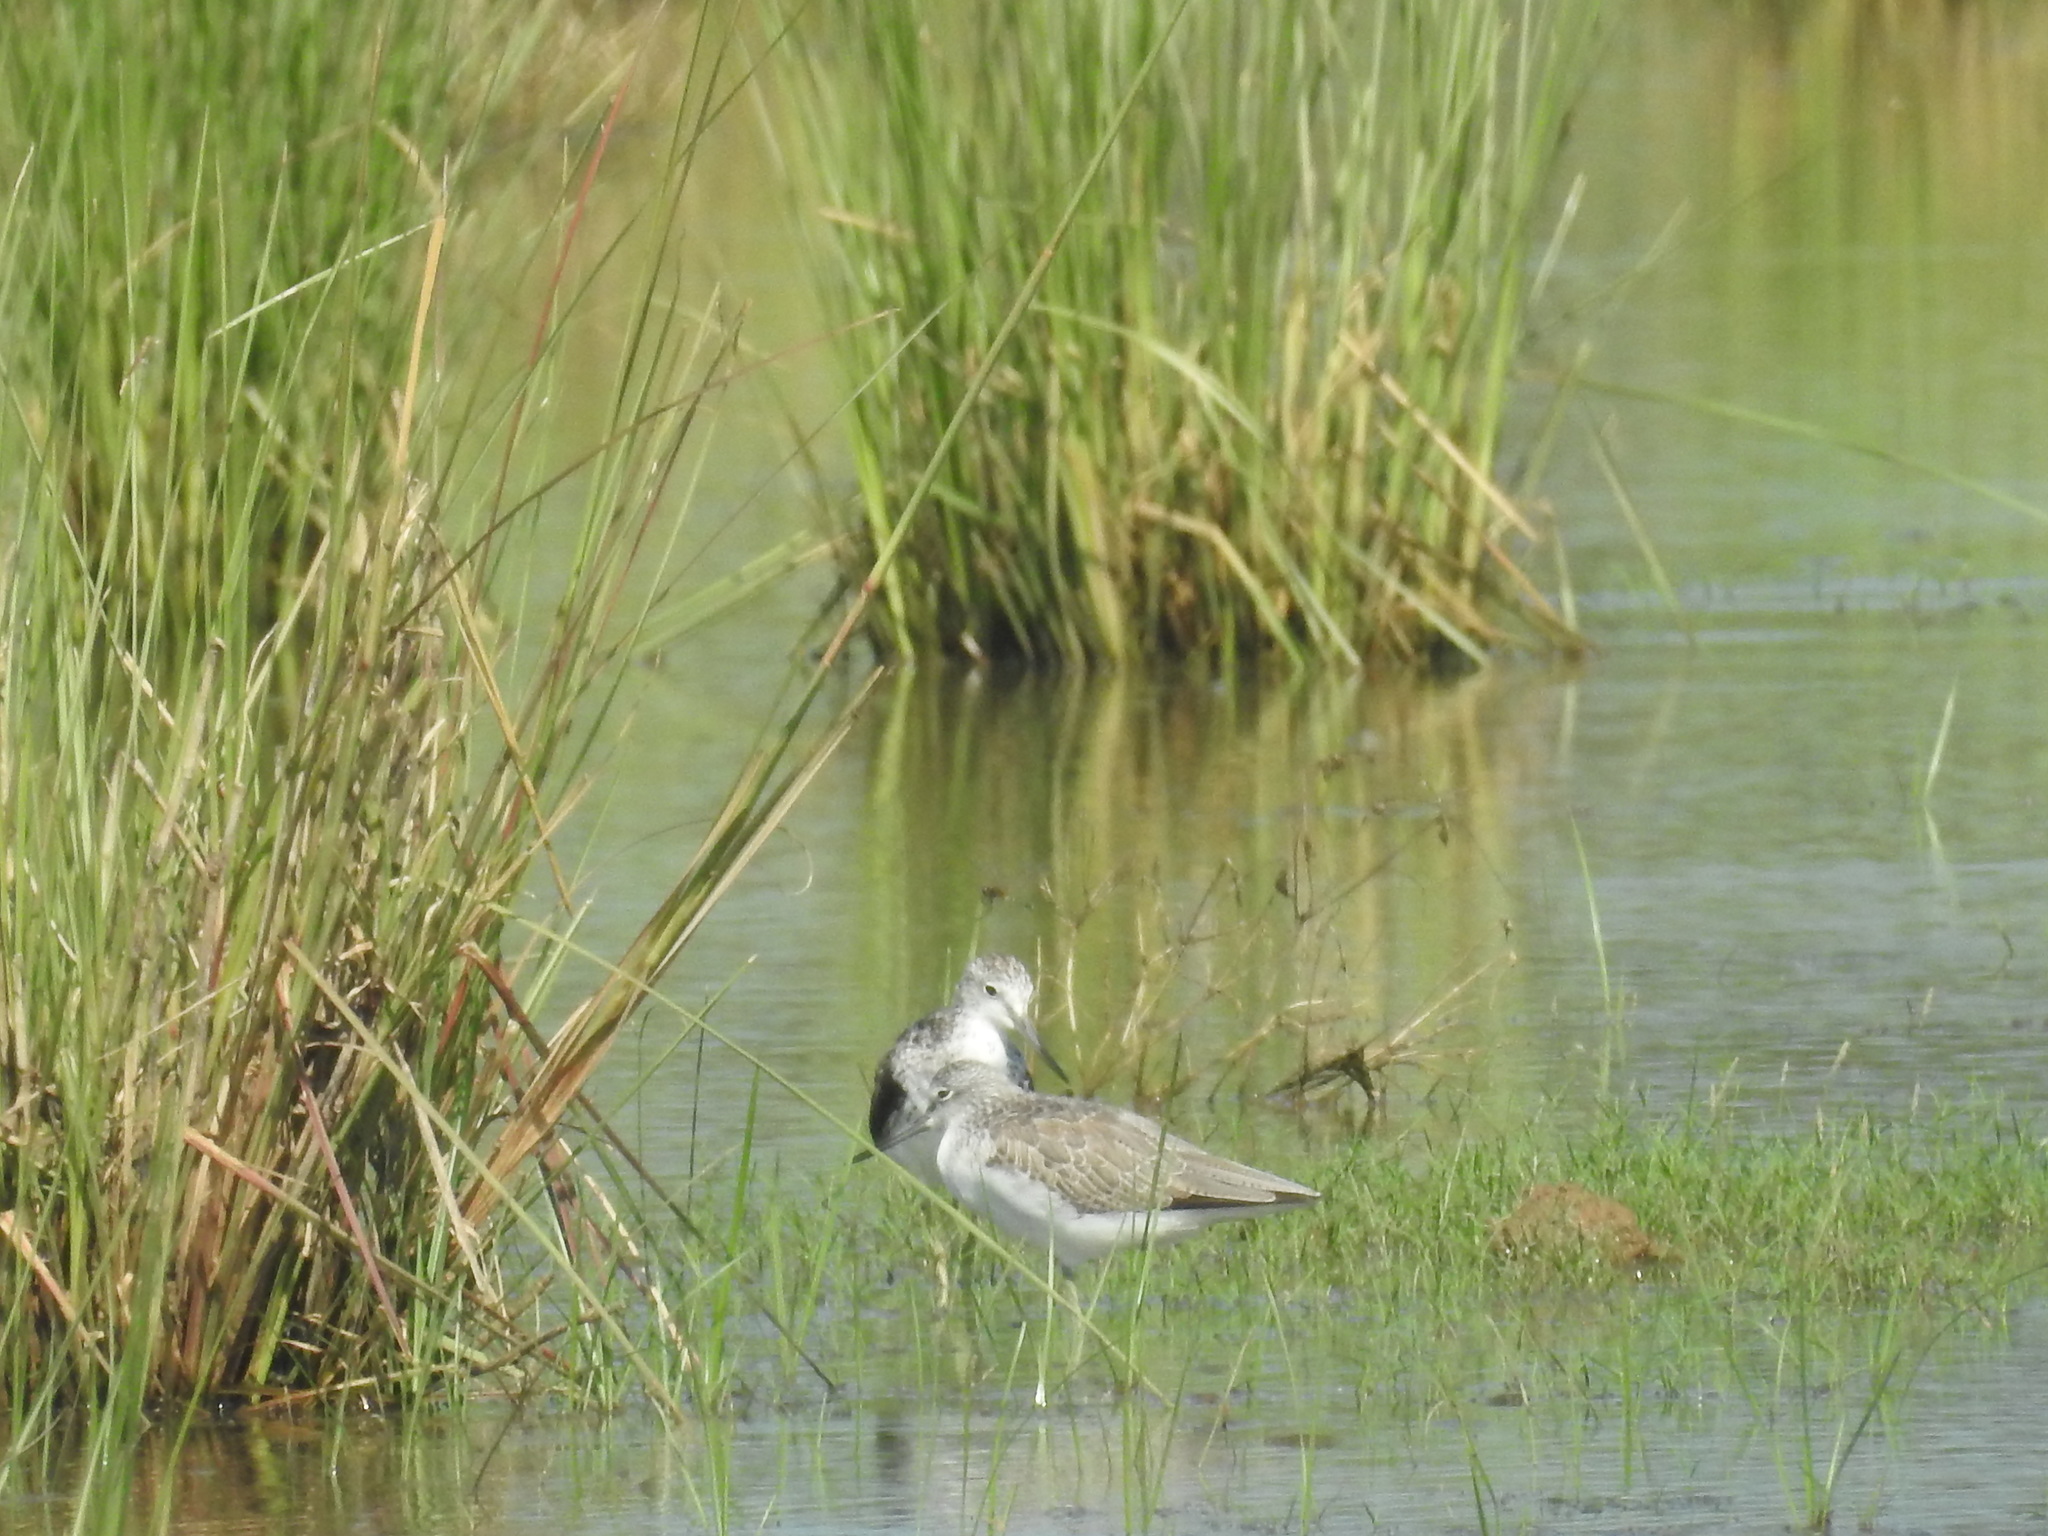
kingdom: Animalia
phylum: Chordata
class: Aves
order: Charadriiformes
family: Scolopacidae
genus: Tringa
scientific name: Tringa nebularia
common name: Common greenshank
